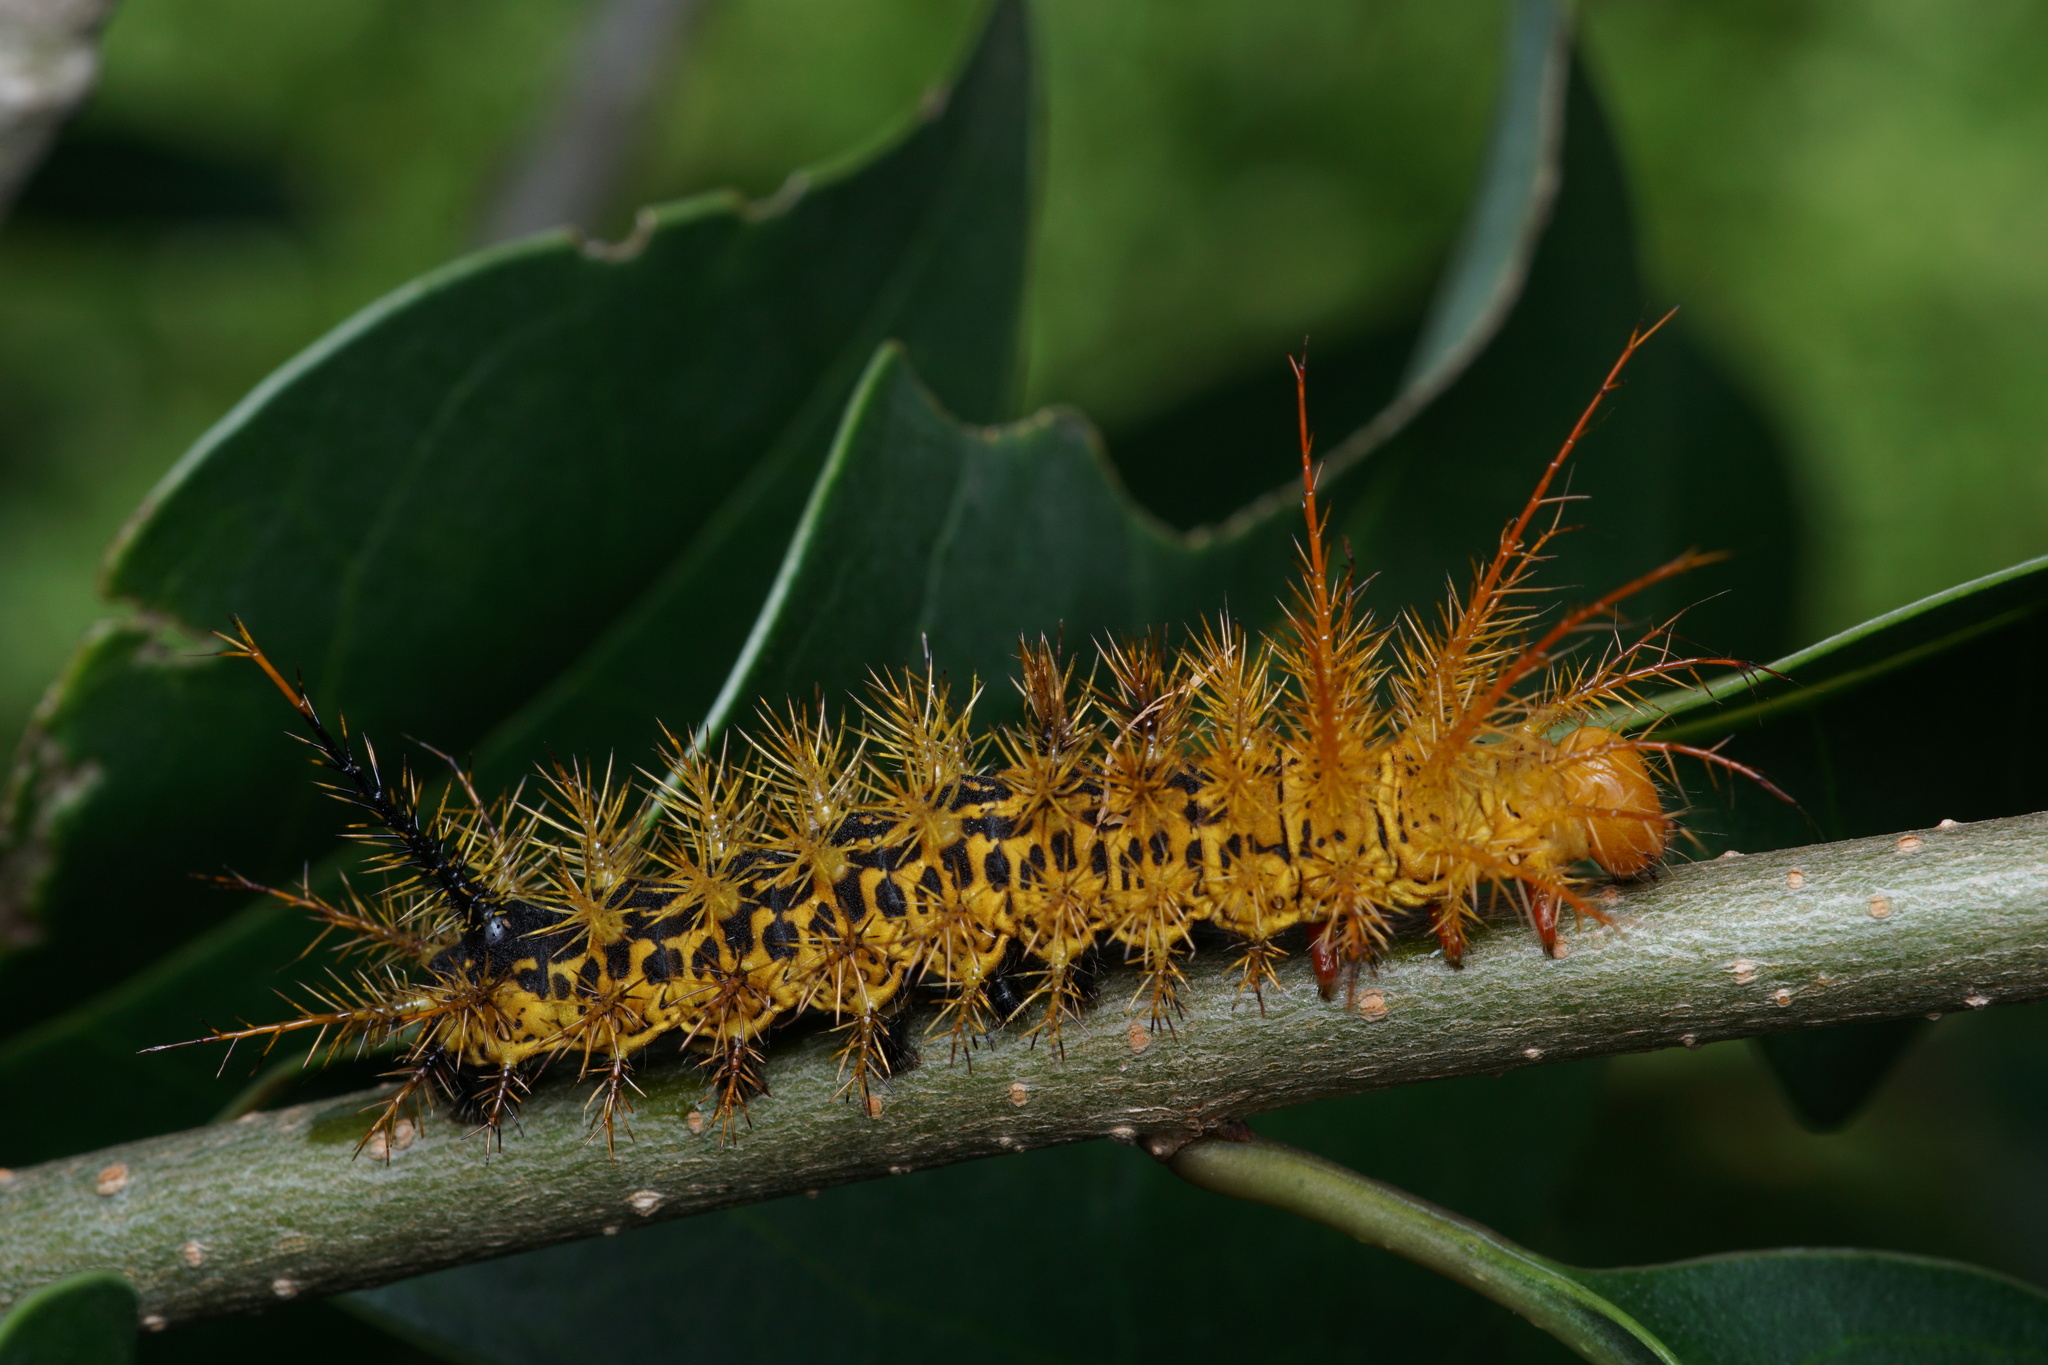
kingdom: Animalia
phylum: Arthropoda
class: Insecta
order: Lepidoptera
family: Saturniidae
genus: Pseudautomeris
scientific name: Pseudautomeris luteata
